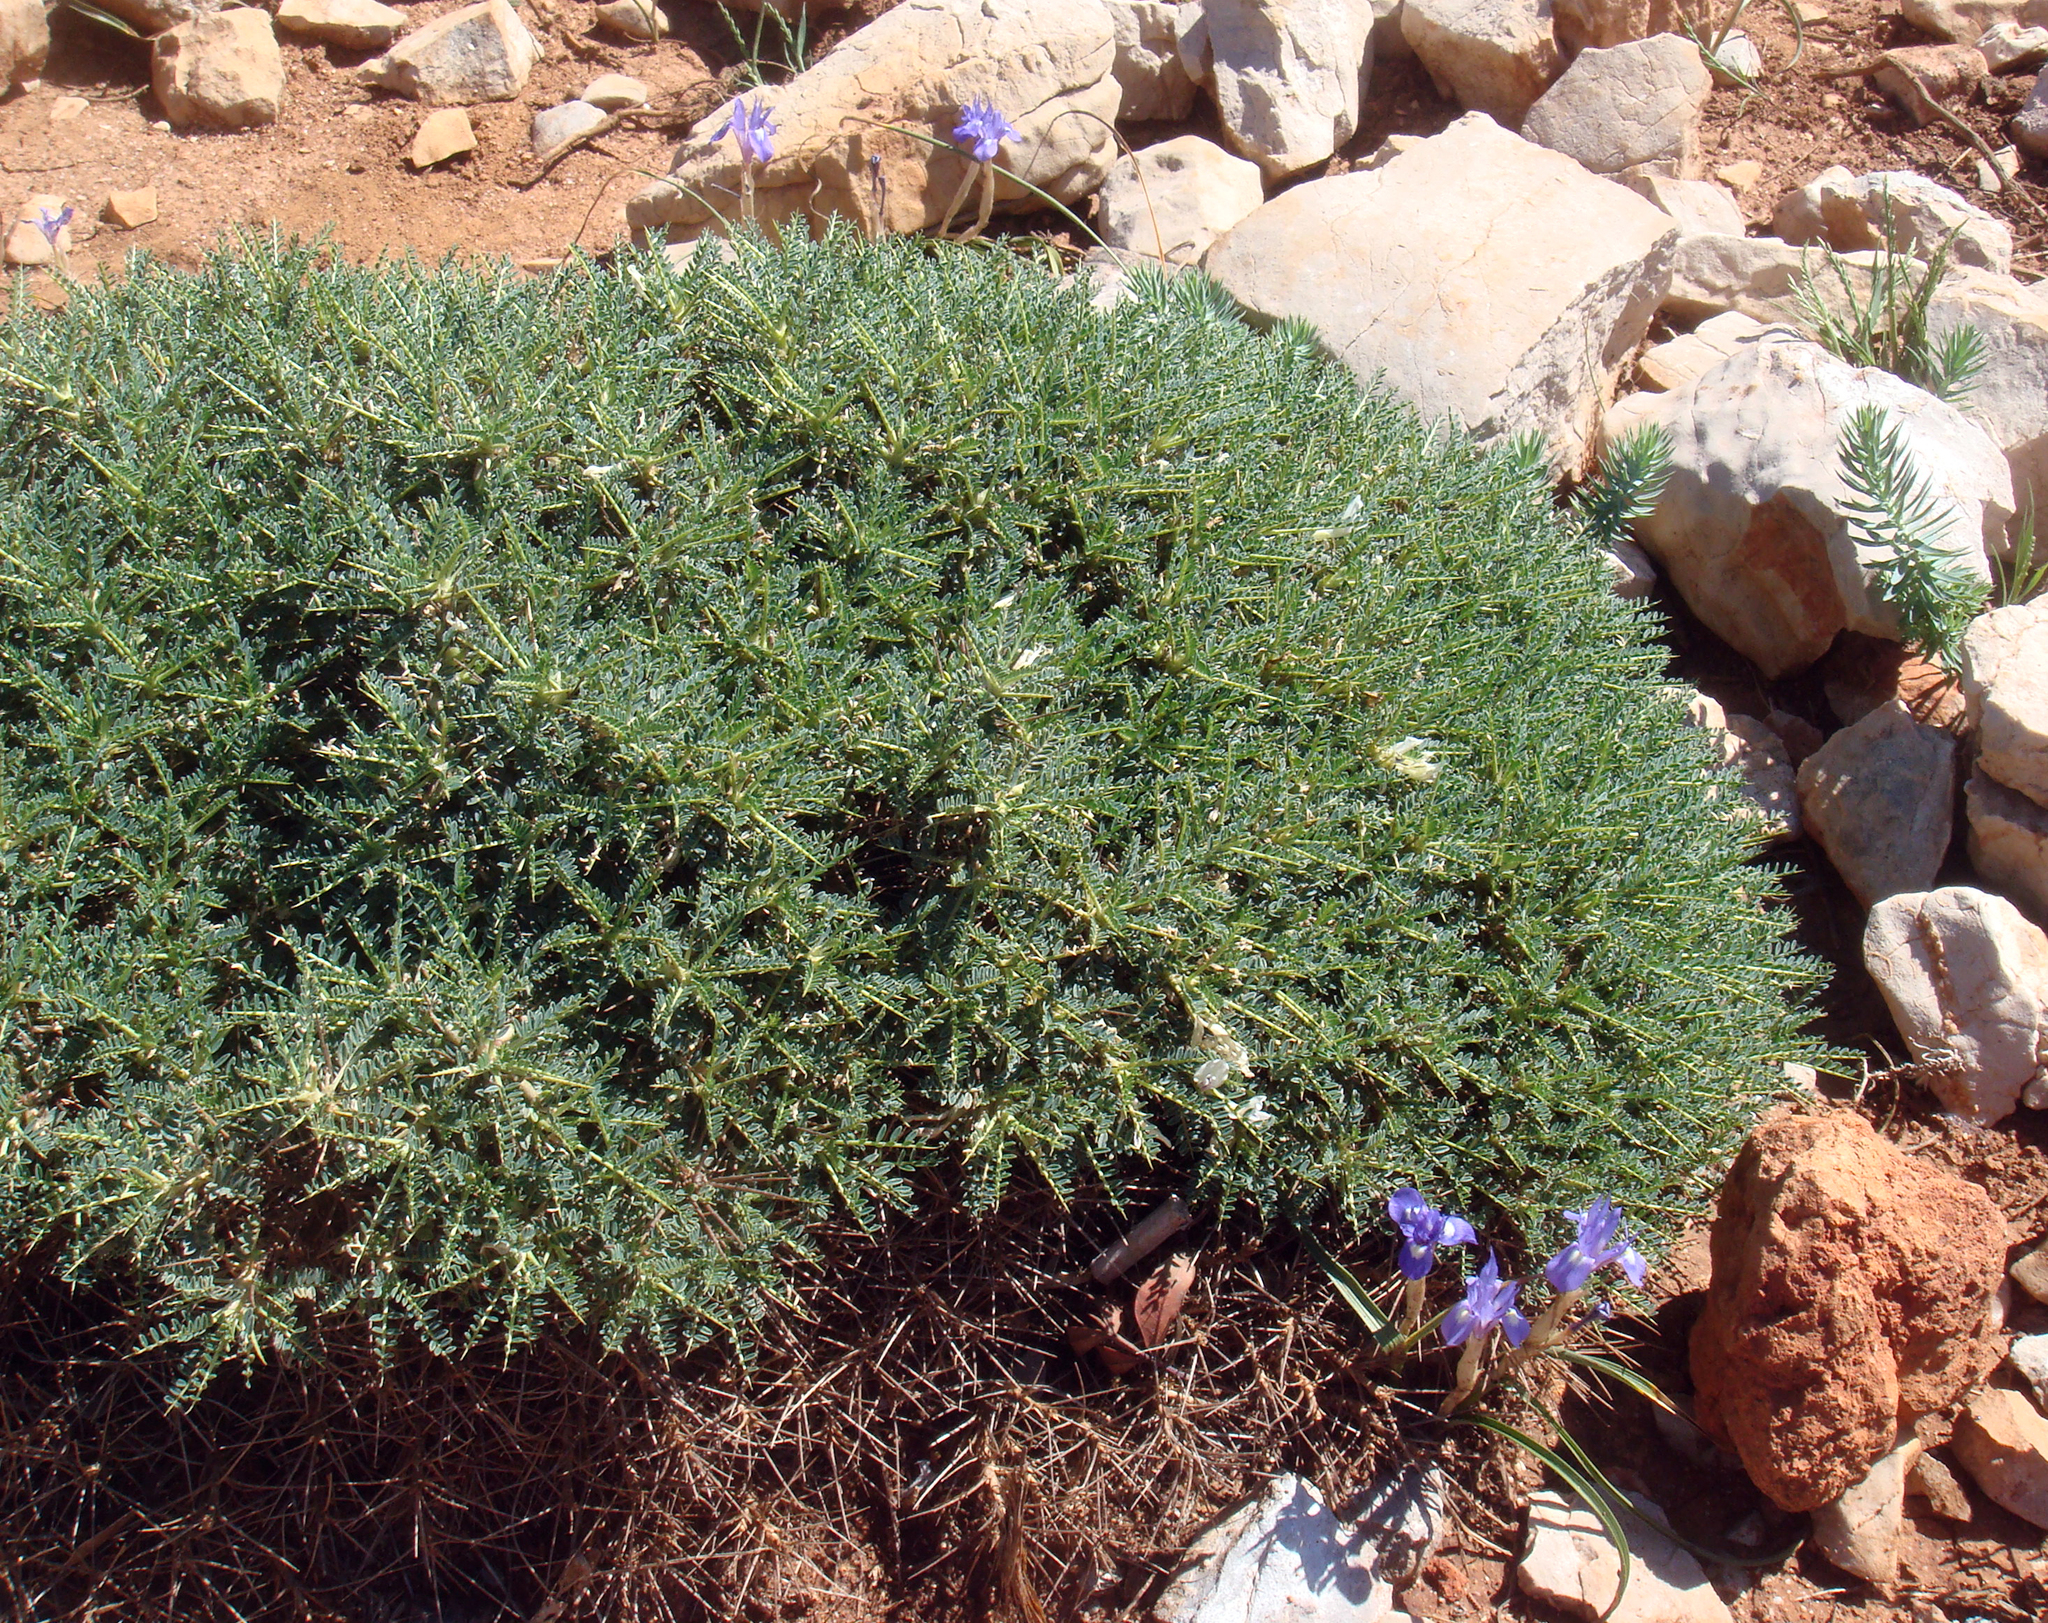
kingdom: Plantae
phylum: Tracheophyta
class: Magnoliopsida
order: Fabales
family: Fabaceae
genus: Astragalus
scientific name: Astragalus terraccianoi
